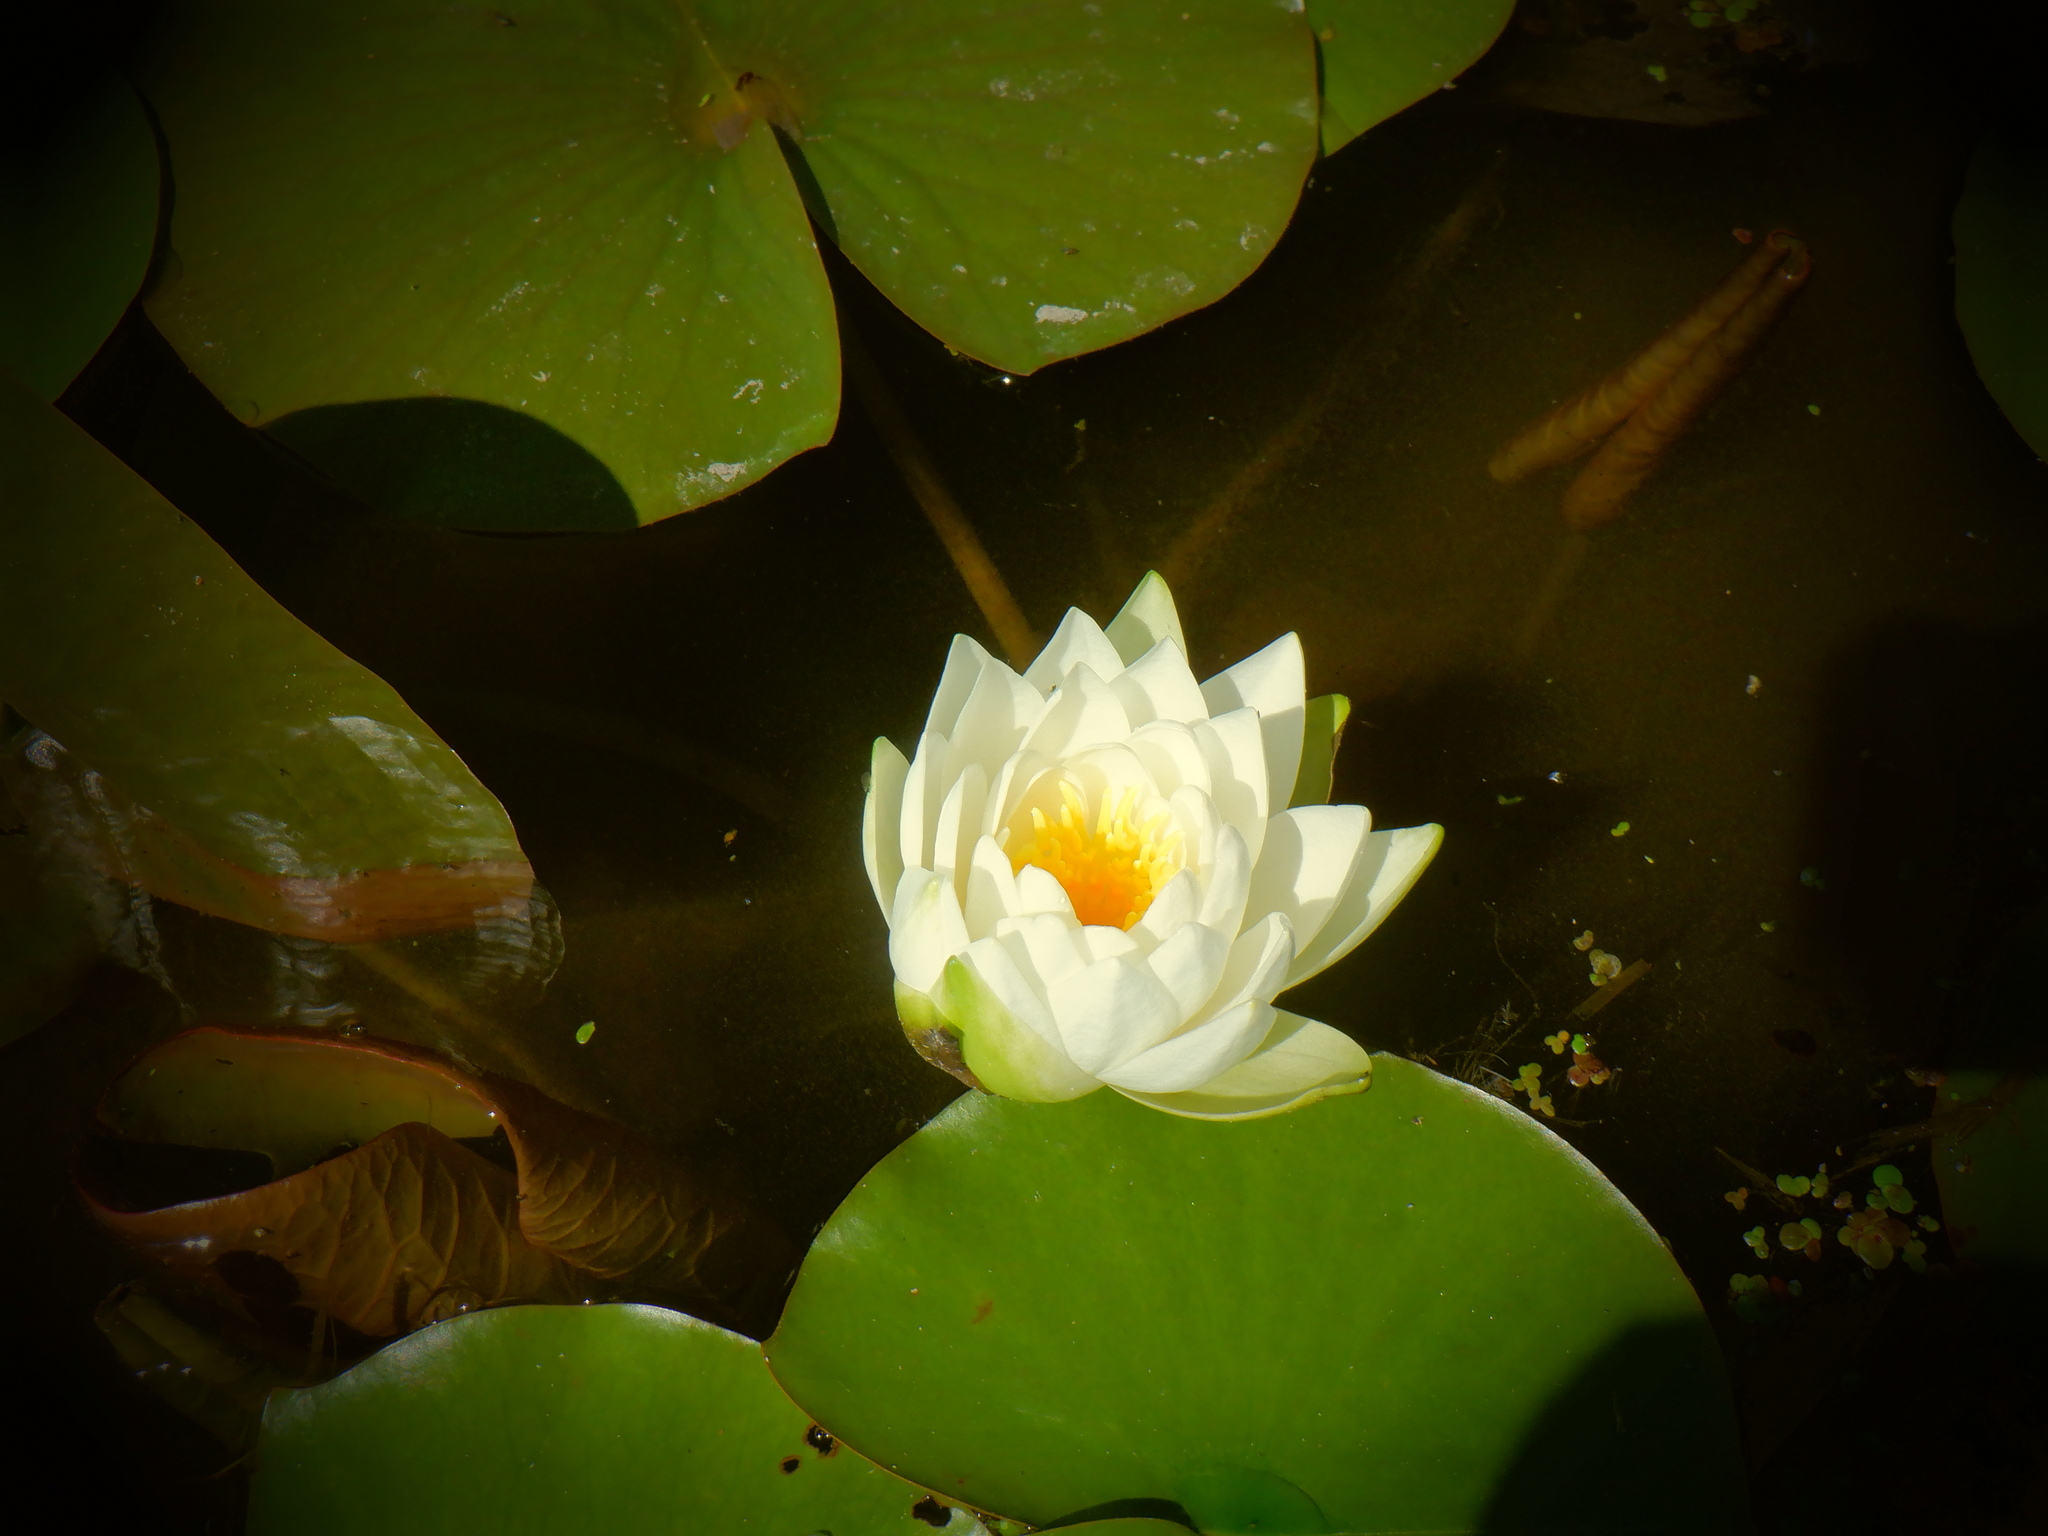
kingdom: Plantae
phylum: Tracheophyta
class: Magnoliopsida
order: Nymphaeales
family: Nymphaeaceae
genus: Nymphaea
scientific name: Nymphaea odorata
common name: Fragrant water-lily
